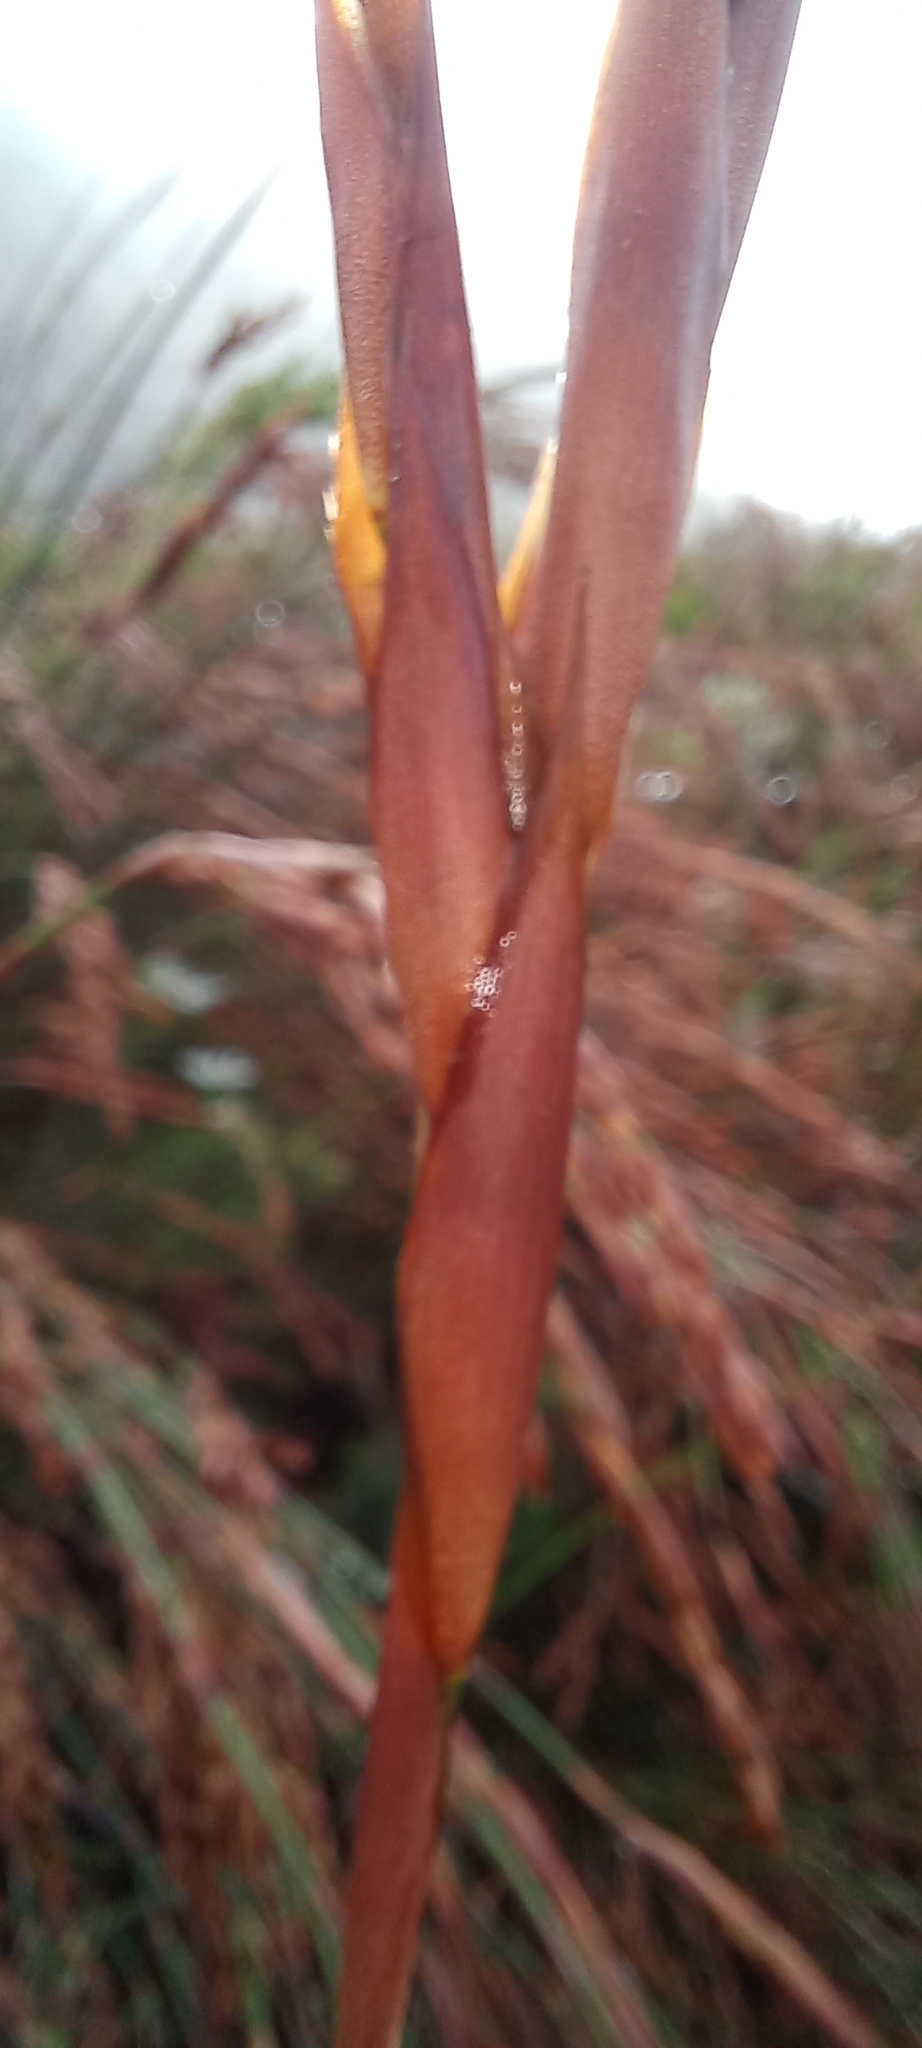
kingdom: Plantae
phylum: Tracheophyta
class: Liliopsida
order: Poales
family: Restionaceae
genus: Restio
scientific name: Restio dispar
